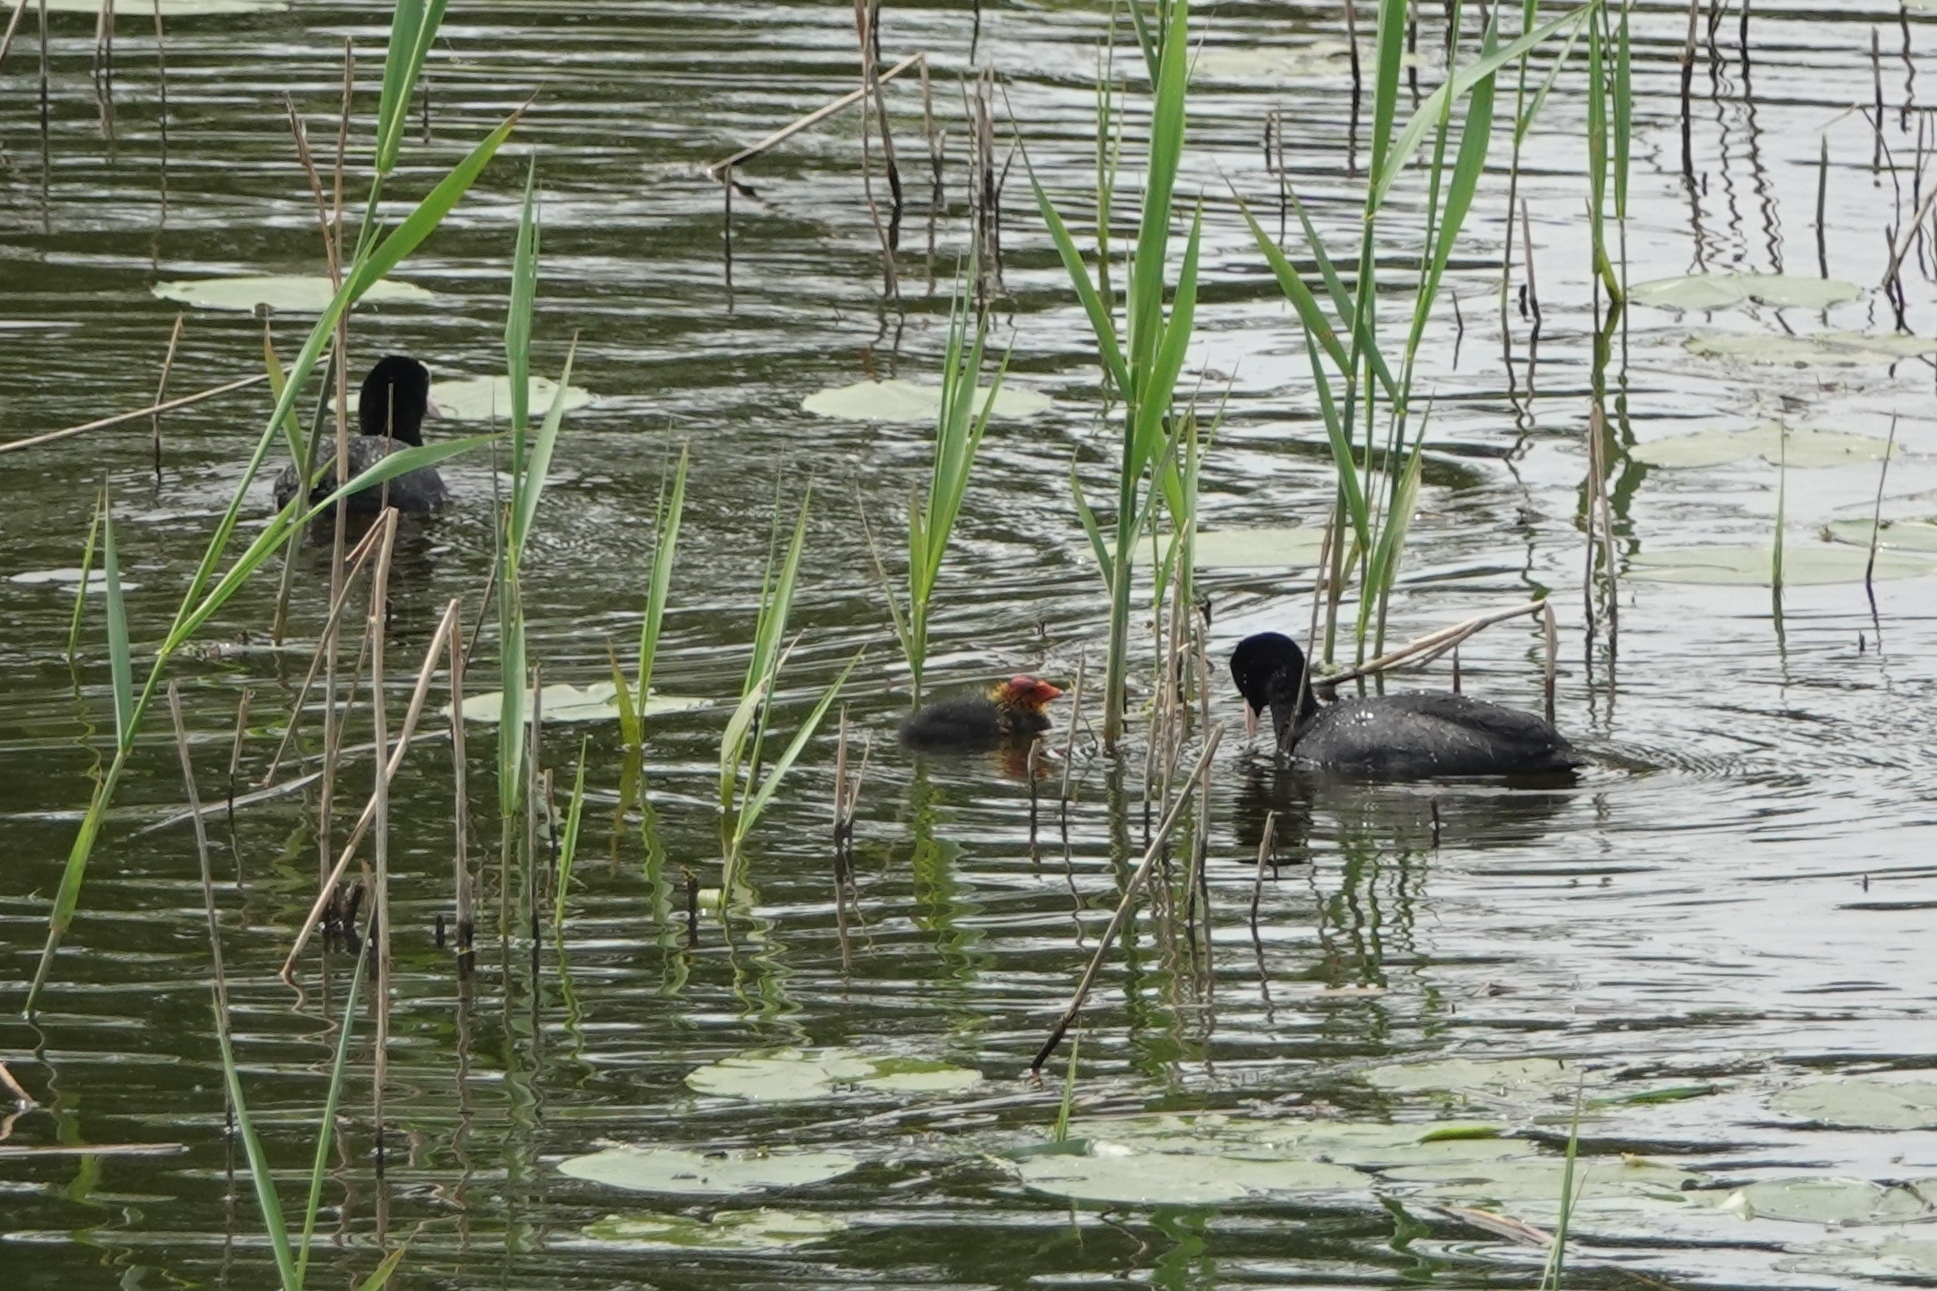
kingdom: Animalia
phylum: Chordata
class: Aves
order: Gruiformes
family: Rallidae
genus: Fulica
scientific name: Fulica atra
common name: Eurasian coot
